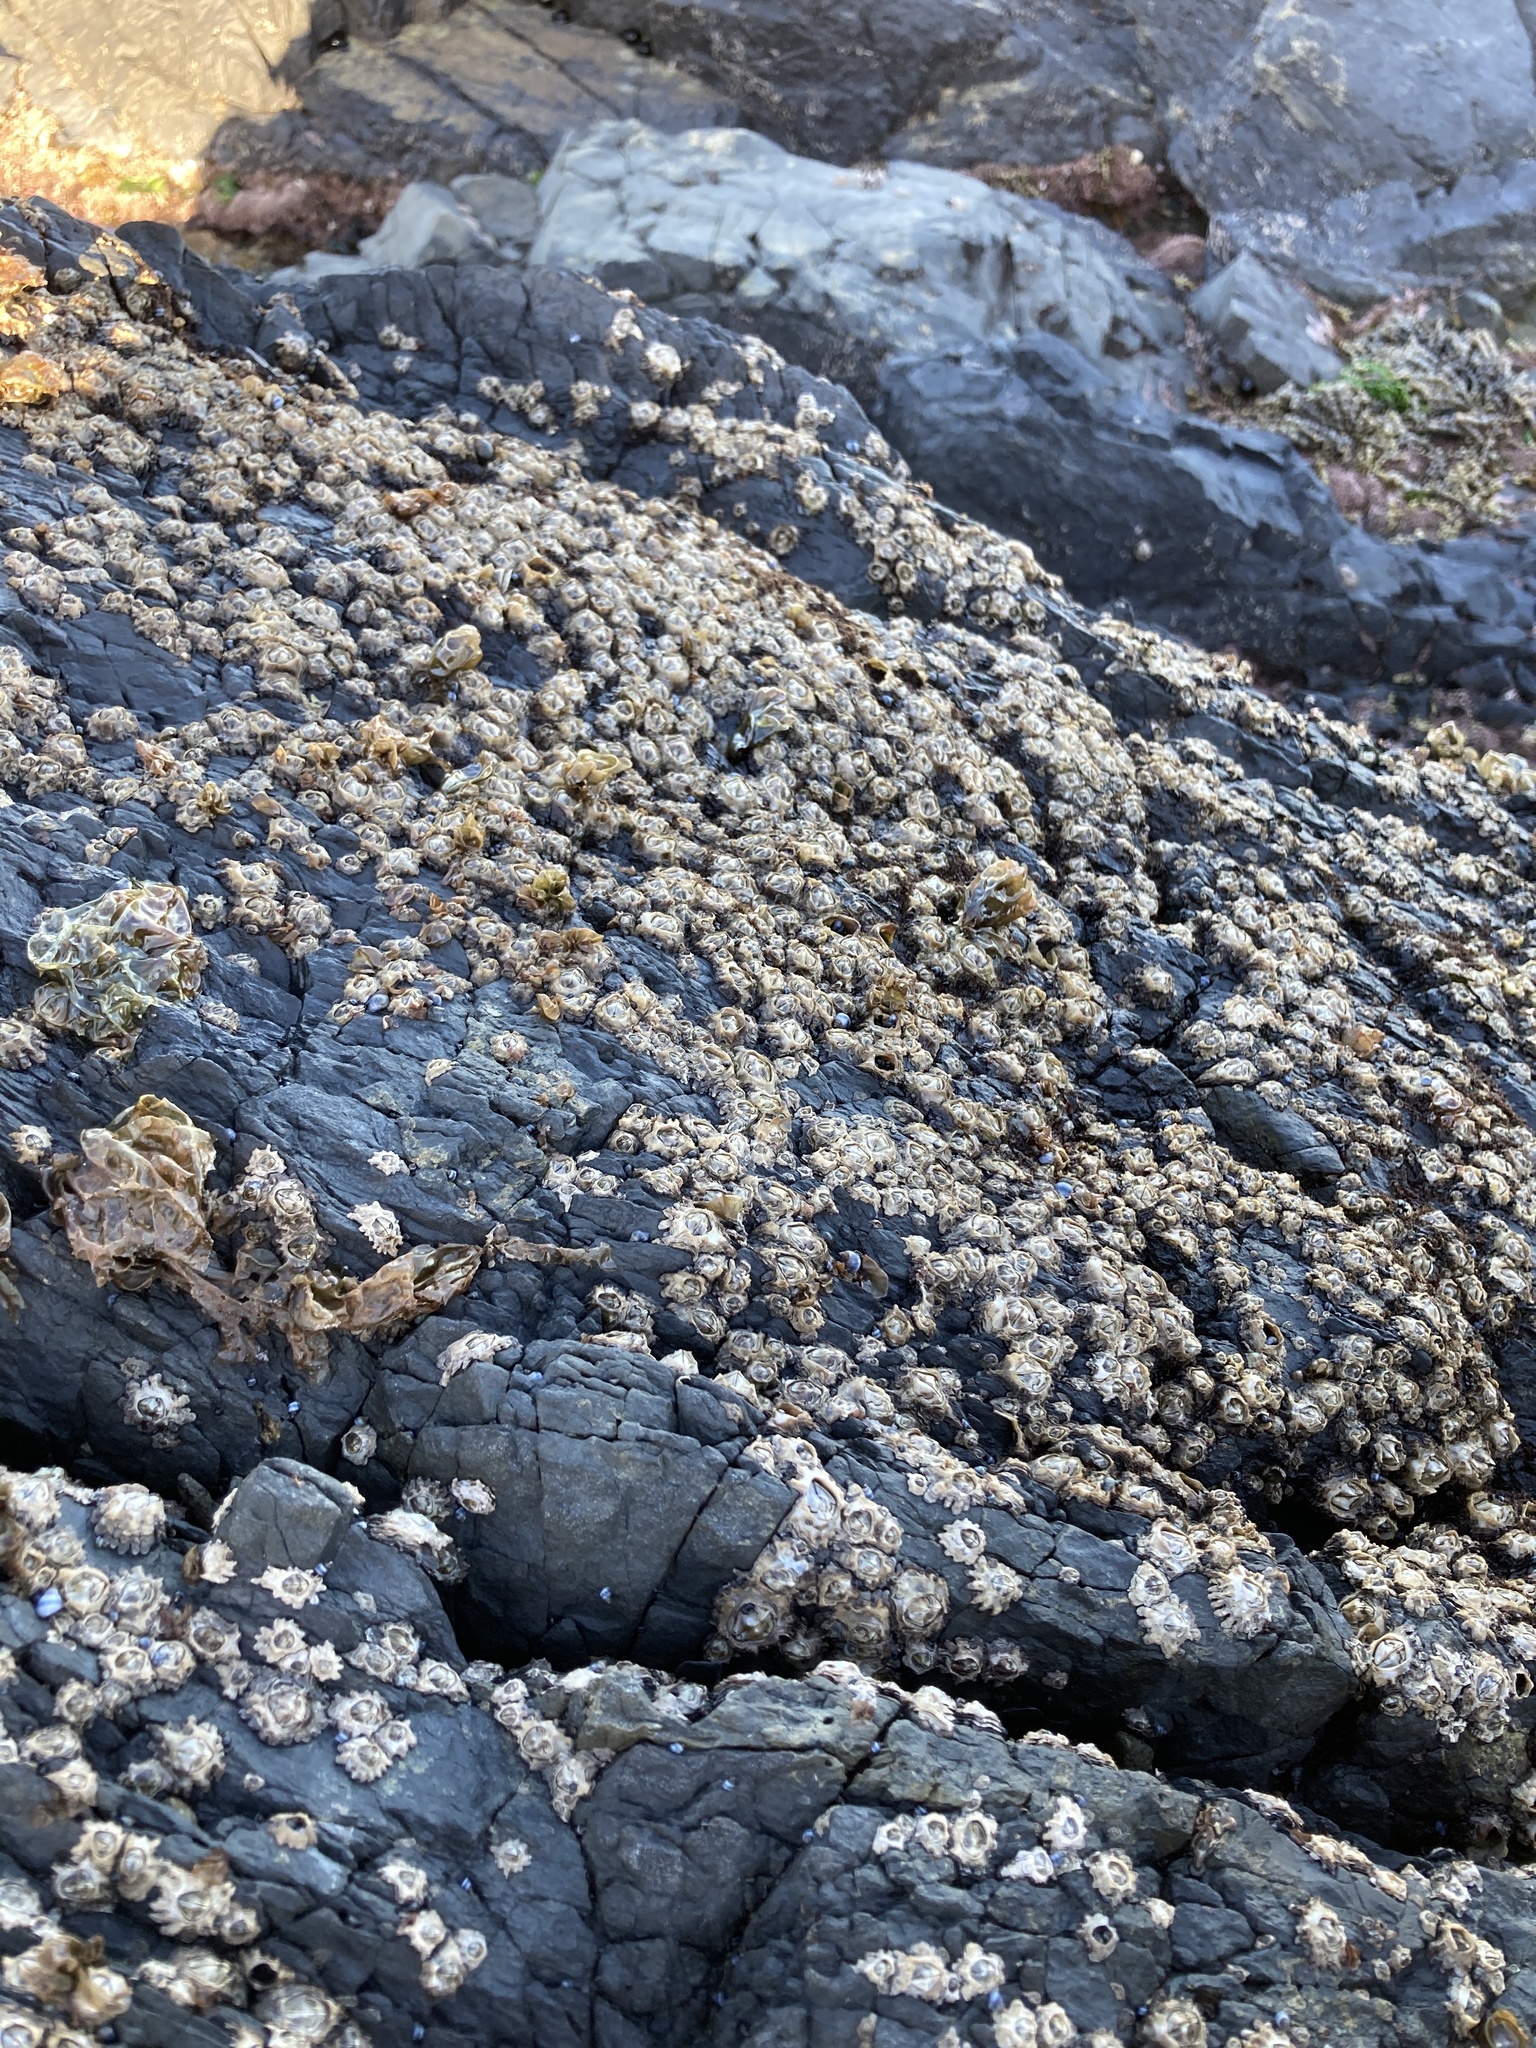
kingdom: Animalia
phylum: Arthropoda
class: Maxillopoda
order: Sessilia
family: Chthamalidae
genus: Chamaesipho
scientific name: Chamaesipho brunnea
